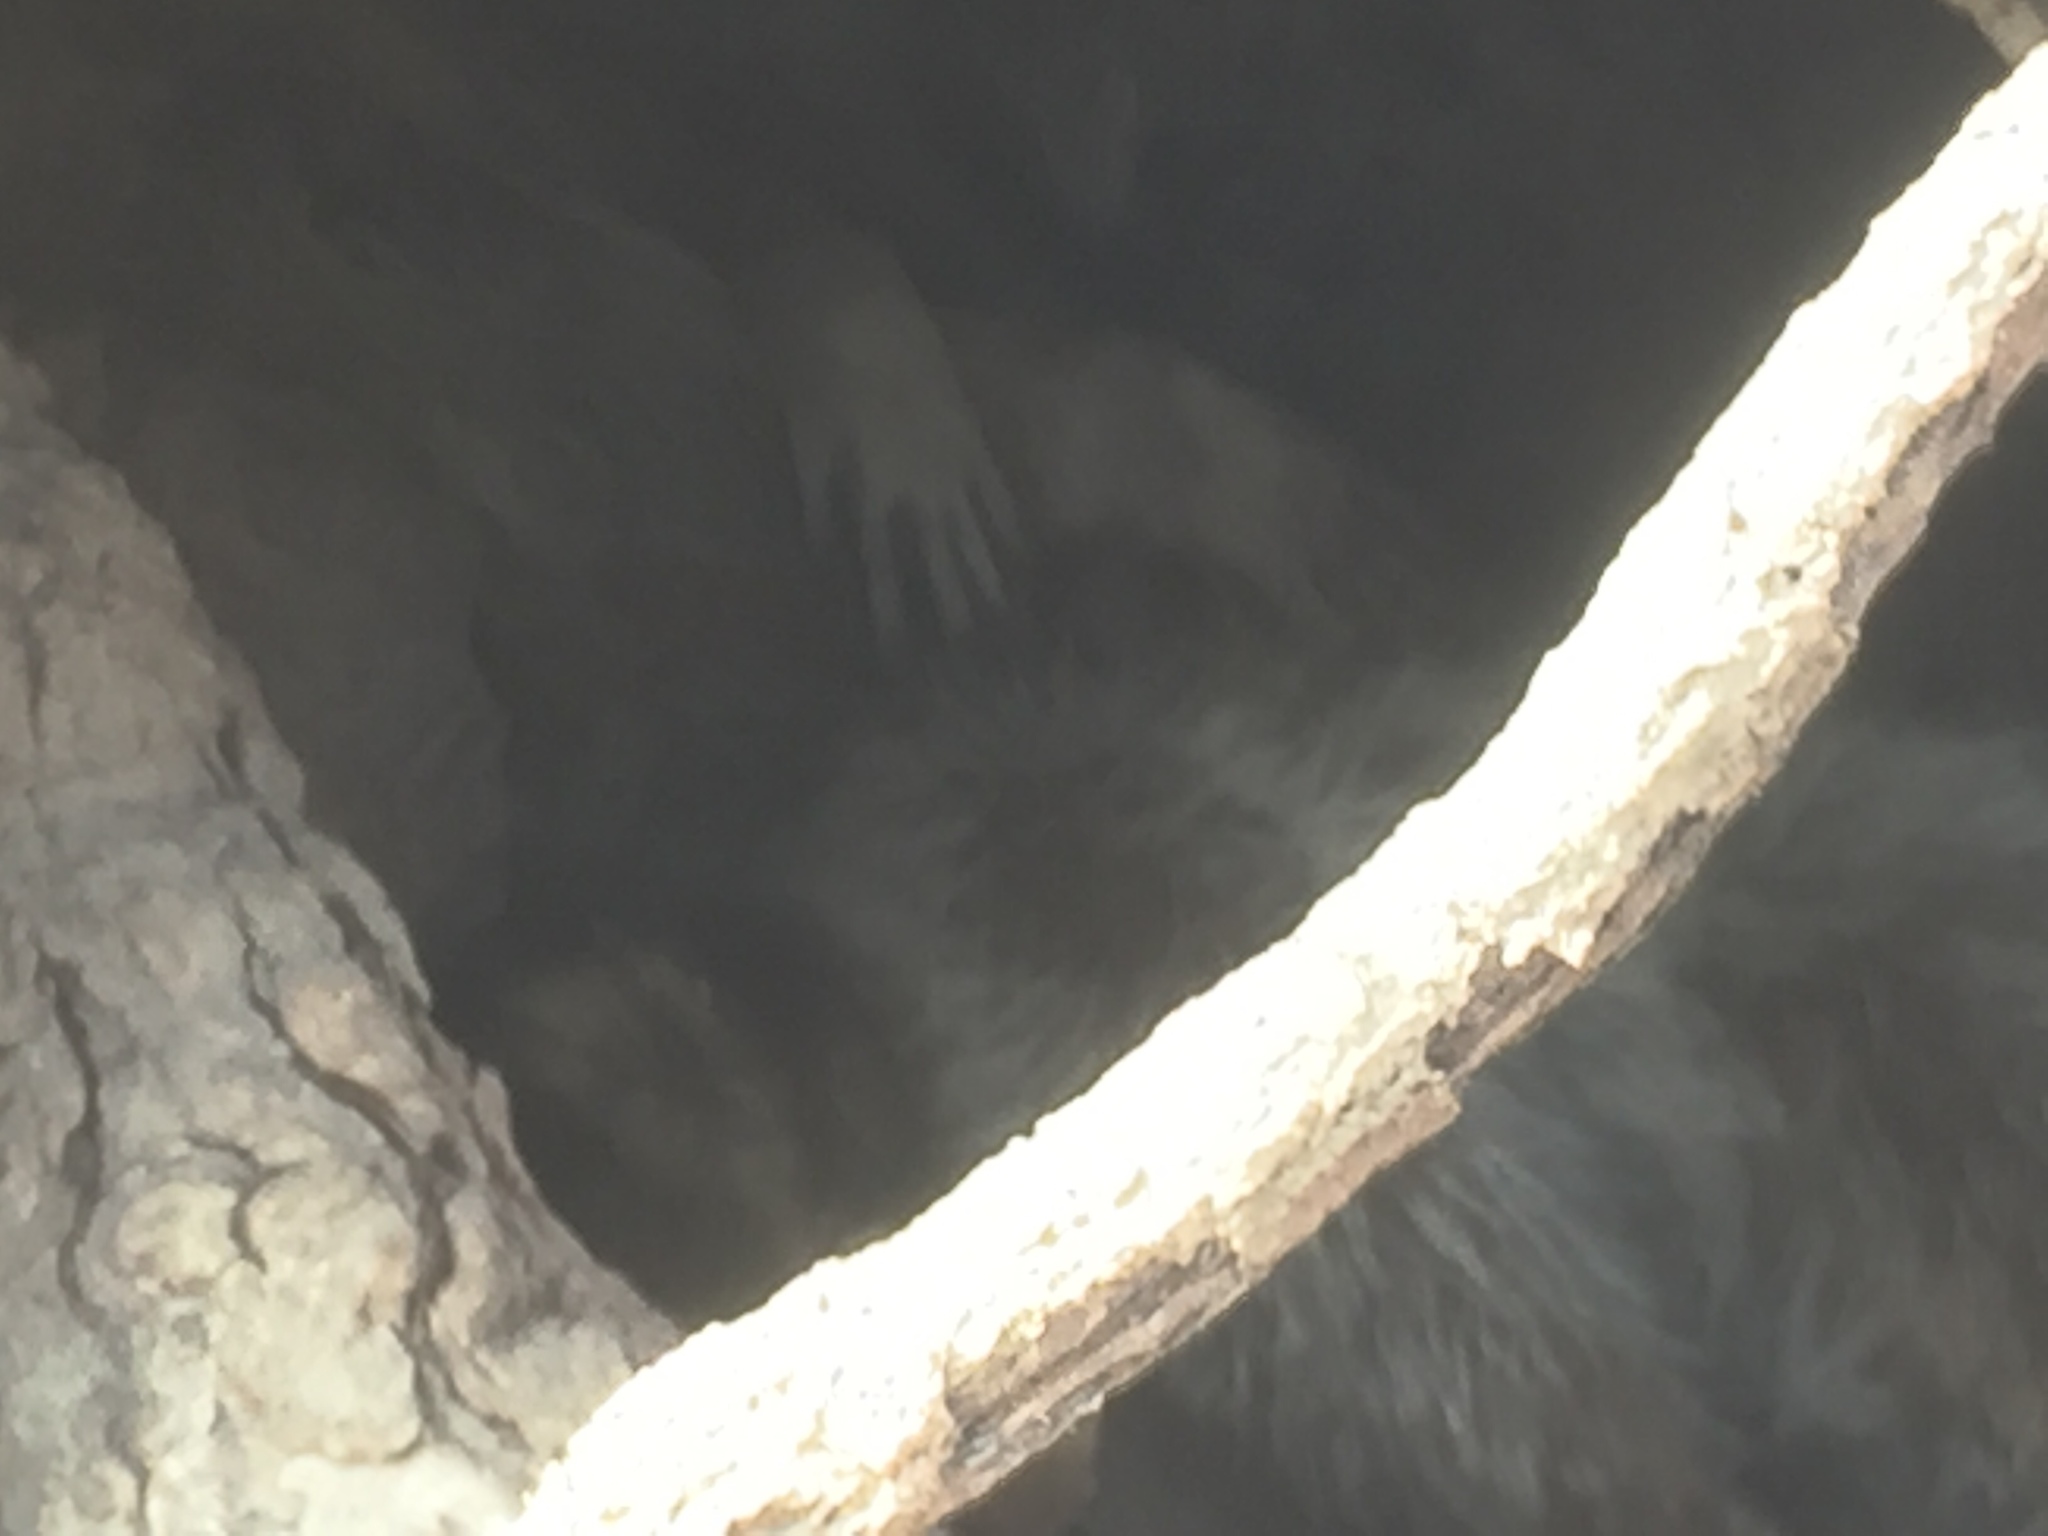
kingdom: Animalia
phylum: Chordata
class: Mammalia
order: Carnivora
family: Procyonidae
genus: Procyon
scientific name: Procyon lotor
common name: Raccoon
